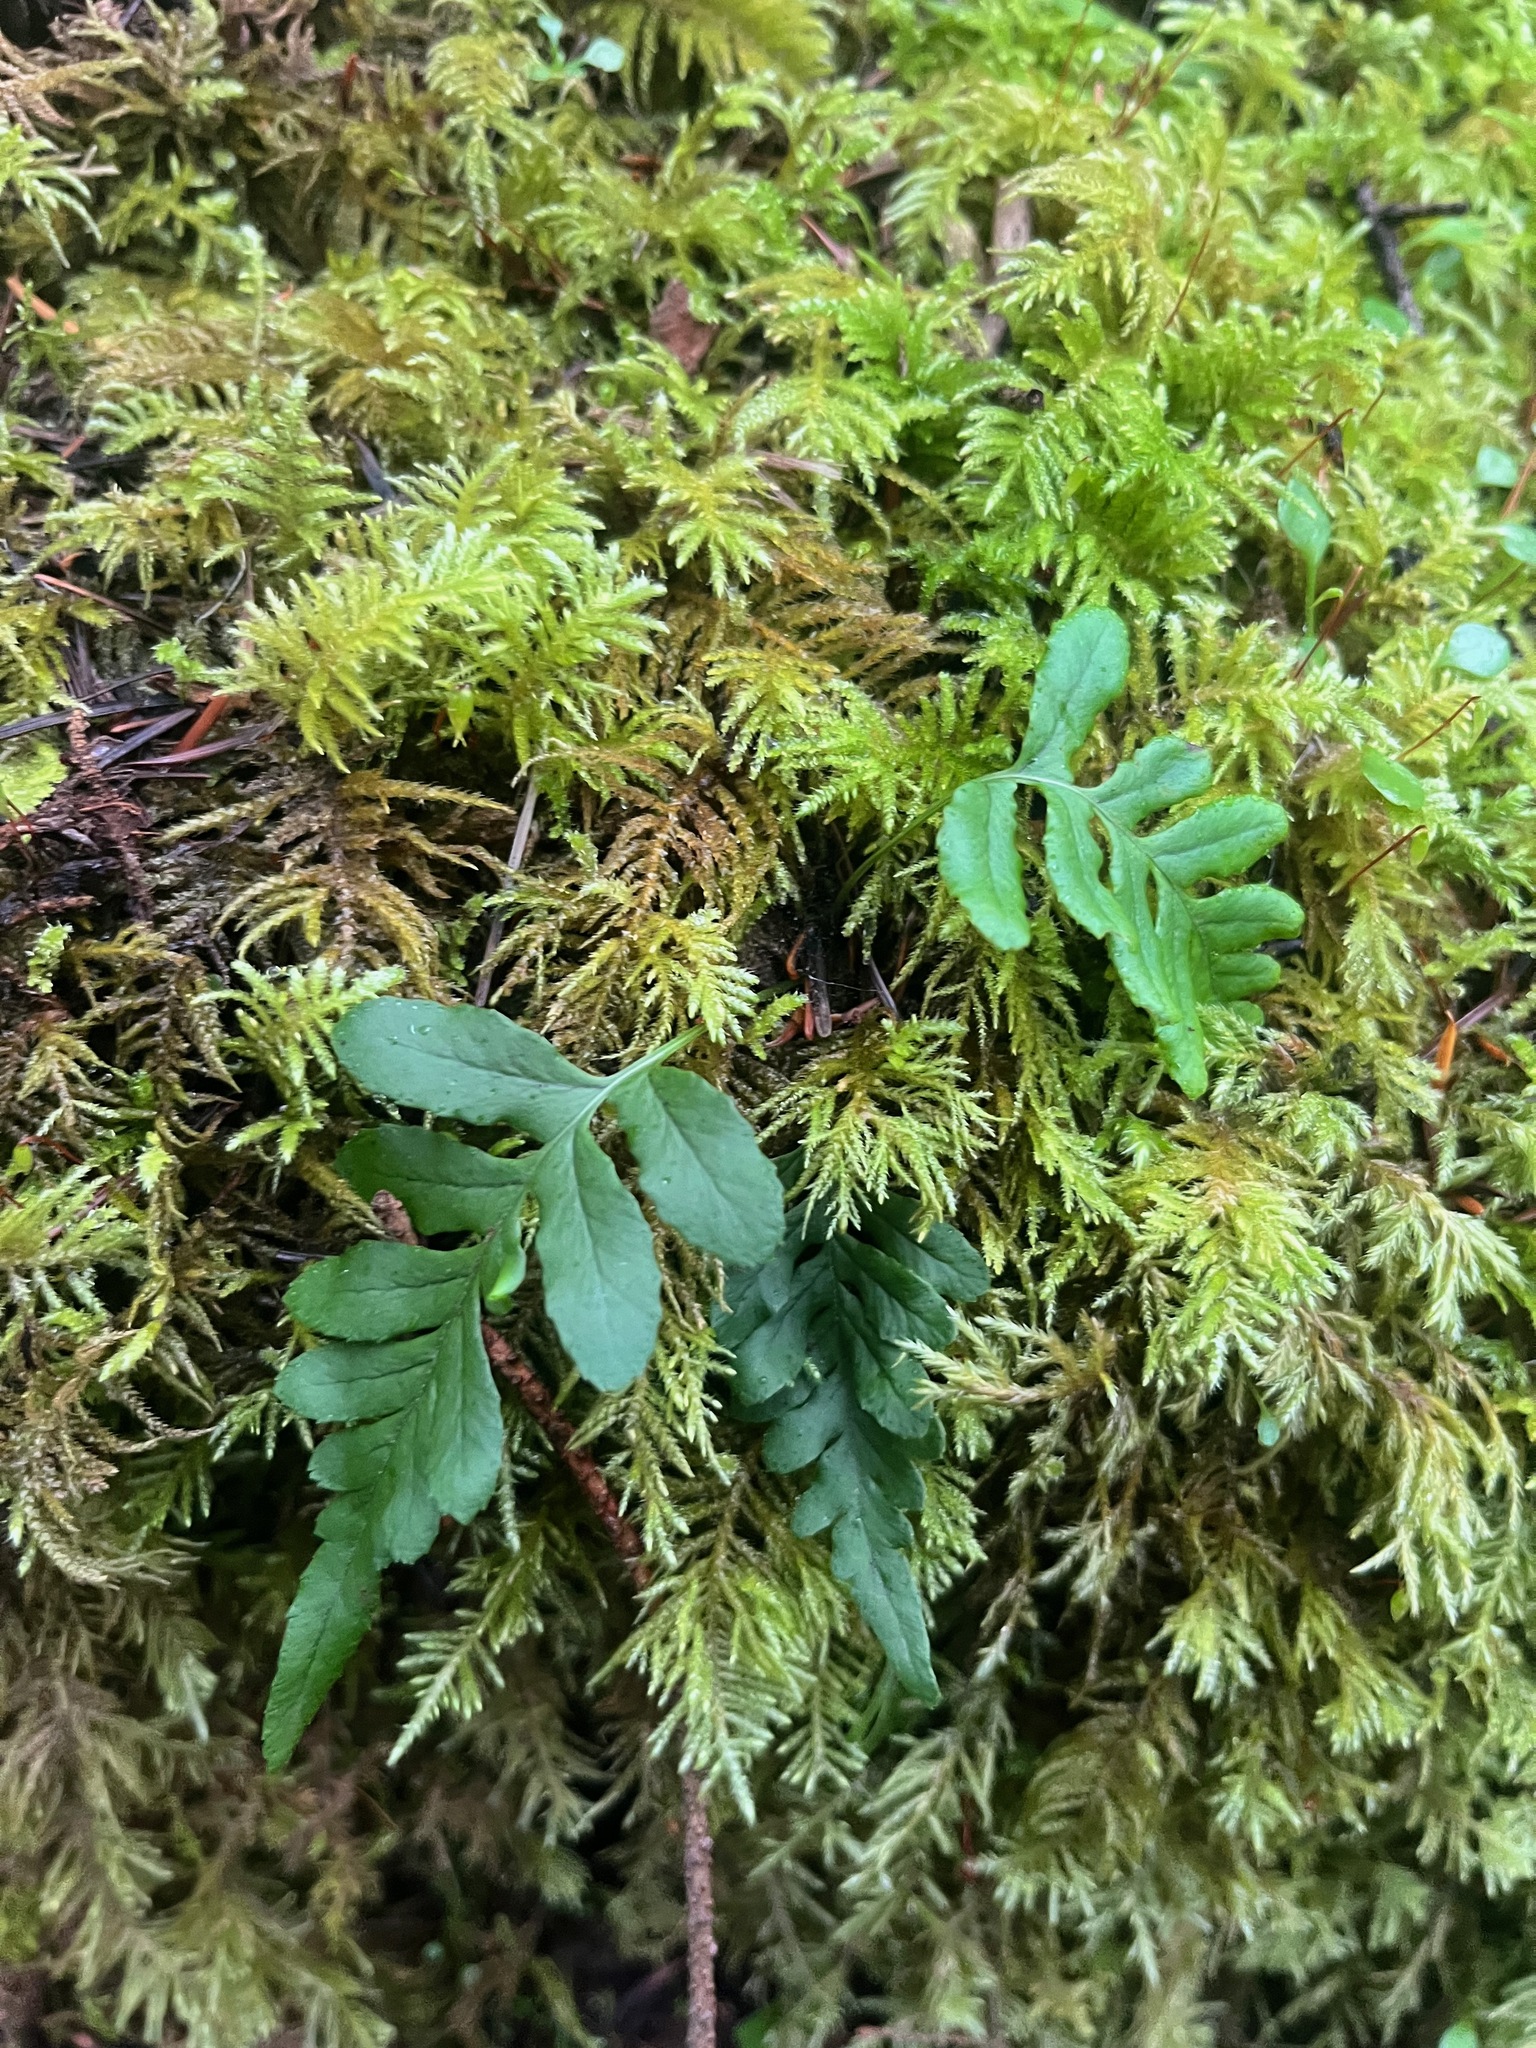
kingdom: Plantae
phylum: Tracheophyta
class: Polypodiopsida
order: Polypodiales
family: Polypodiaceae
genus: Polypodium
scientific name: Polypodium glycyrrhiza
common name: Licorice fern
